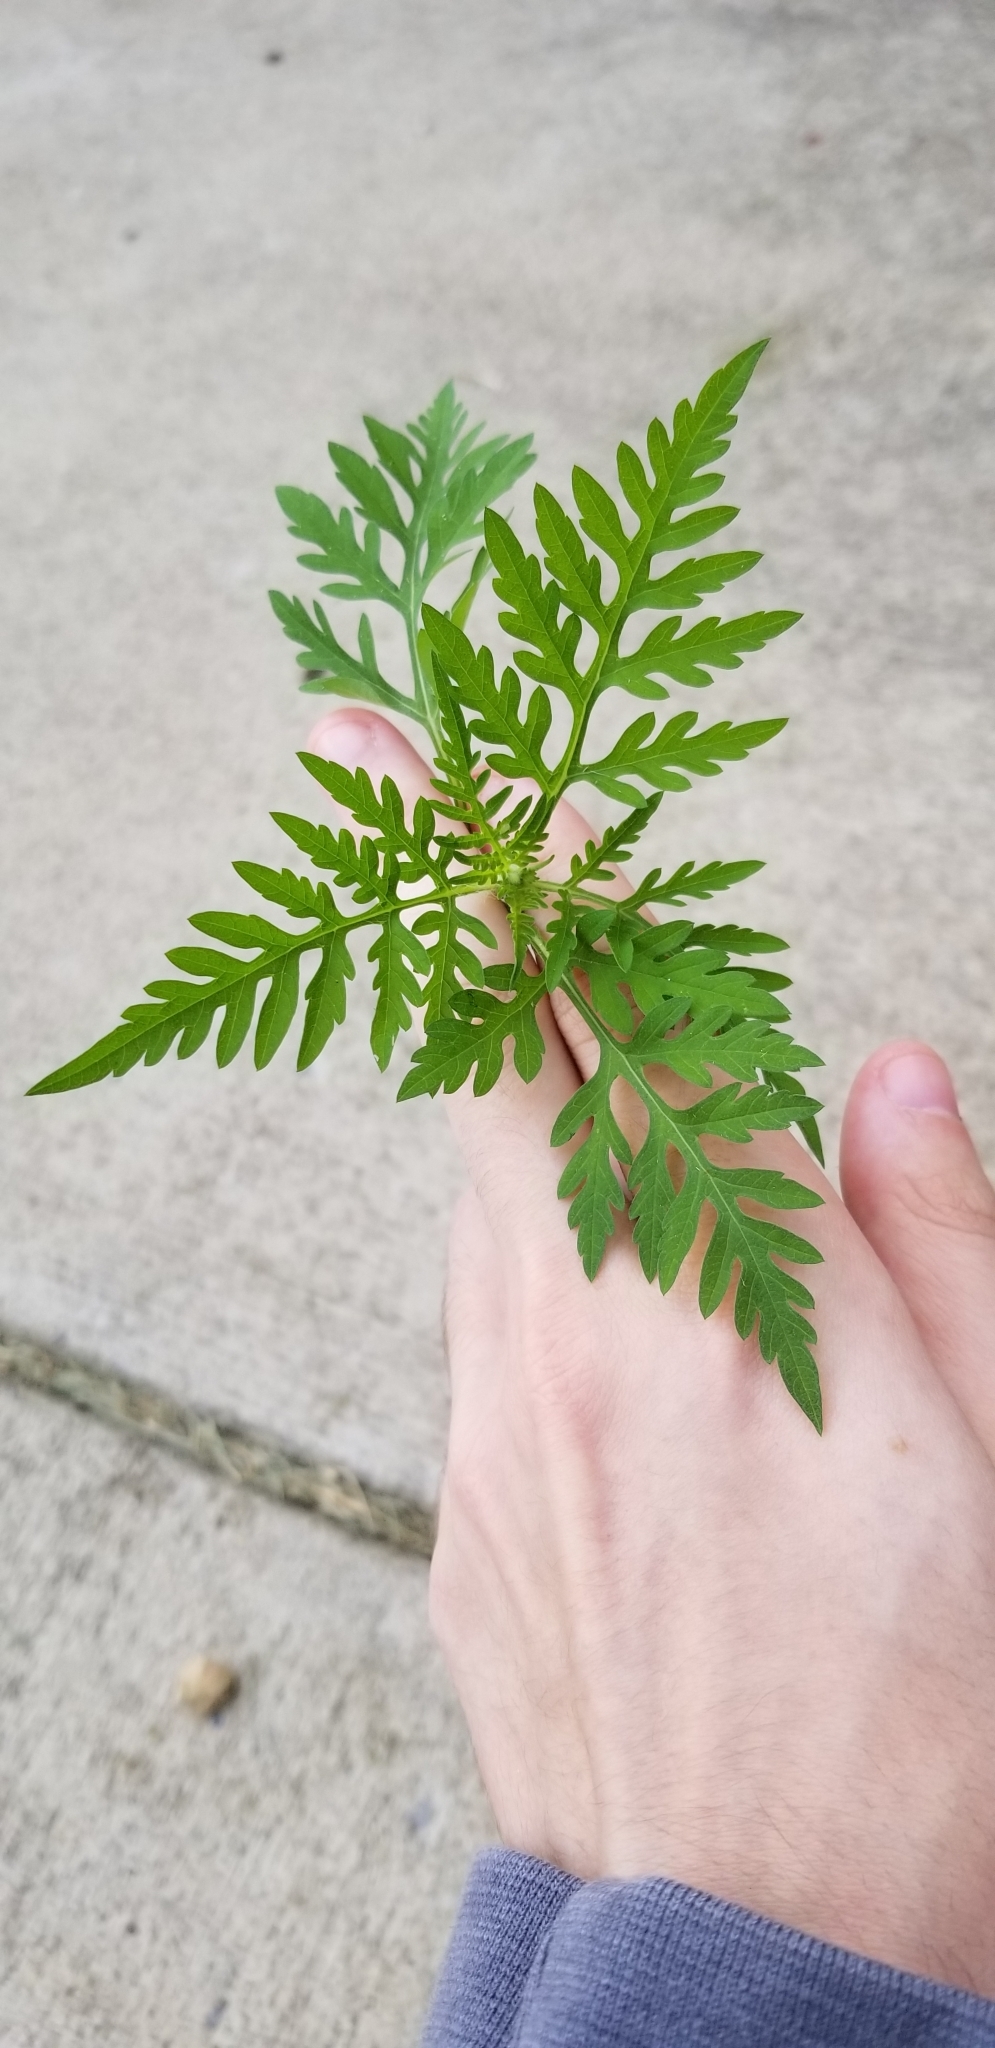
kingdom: Plantae
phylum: Tracheophyta
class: Magnoliopsida
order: Asterales
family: Asteraceae
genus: Ambrosia
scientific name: Ambrosia artemisiifolia
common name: Annual ragweed
